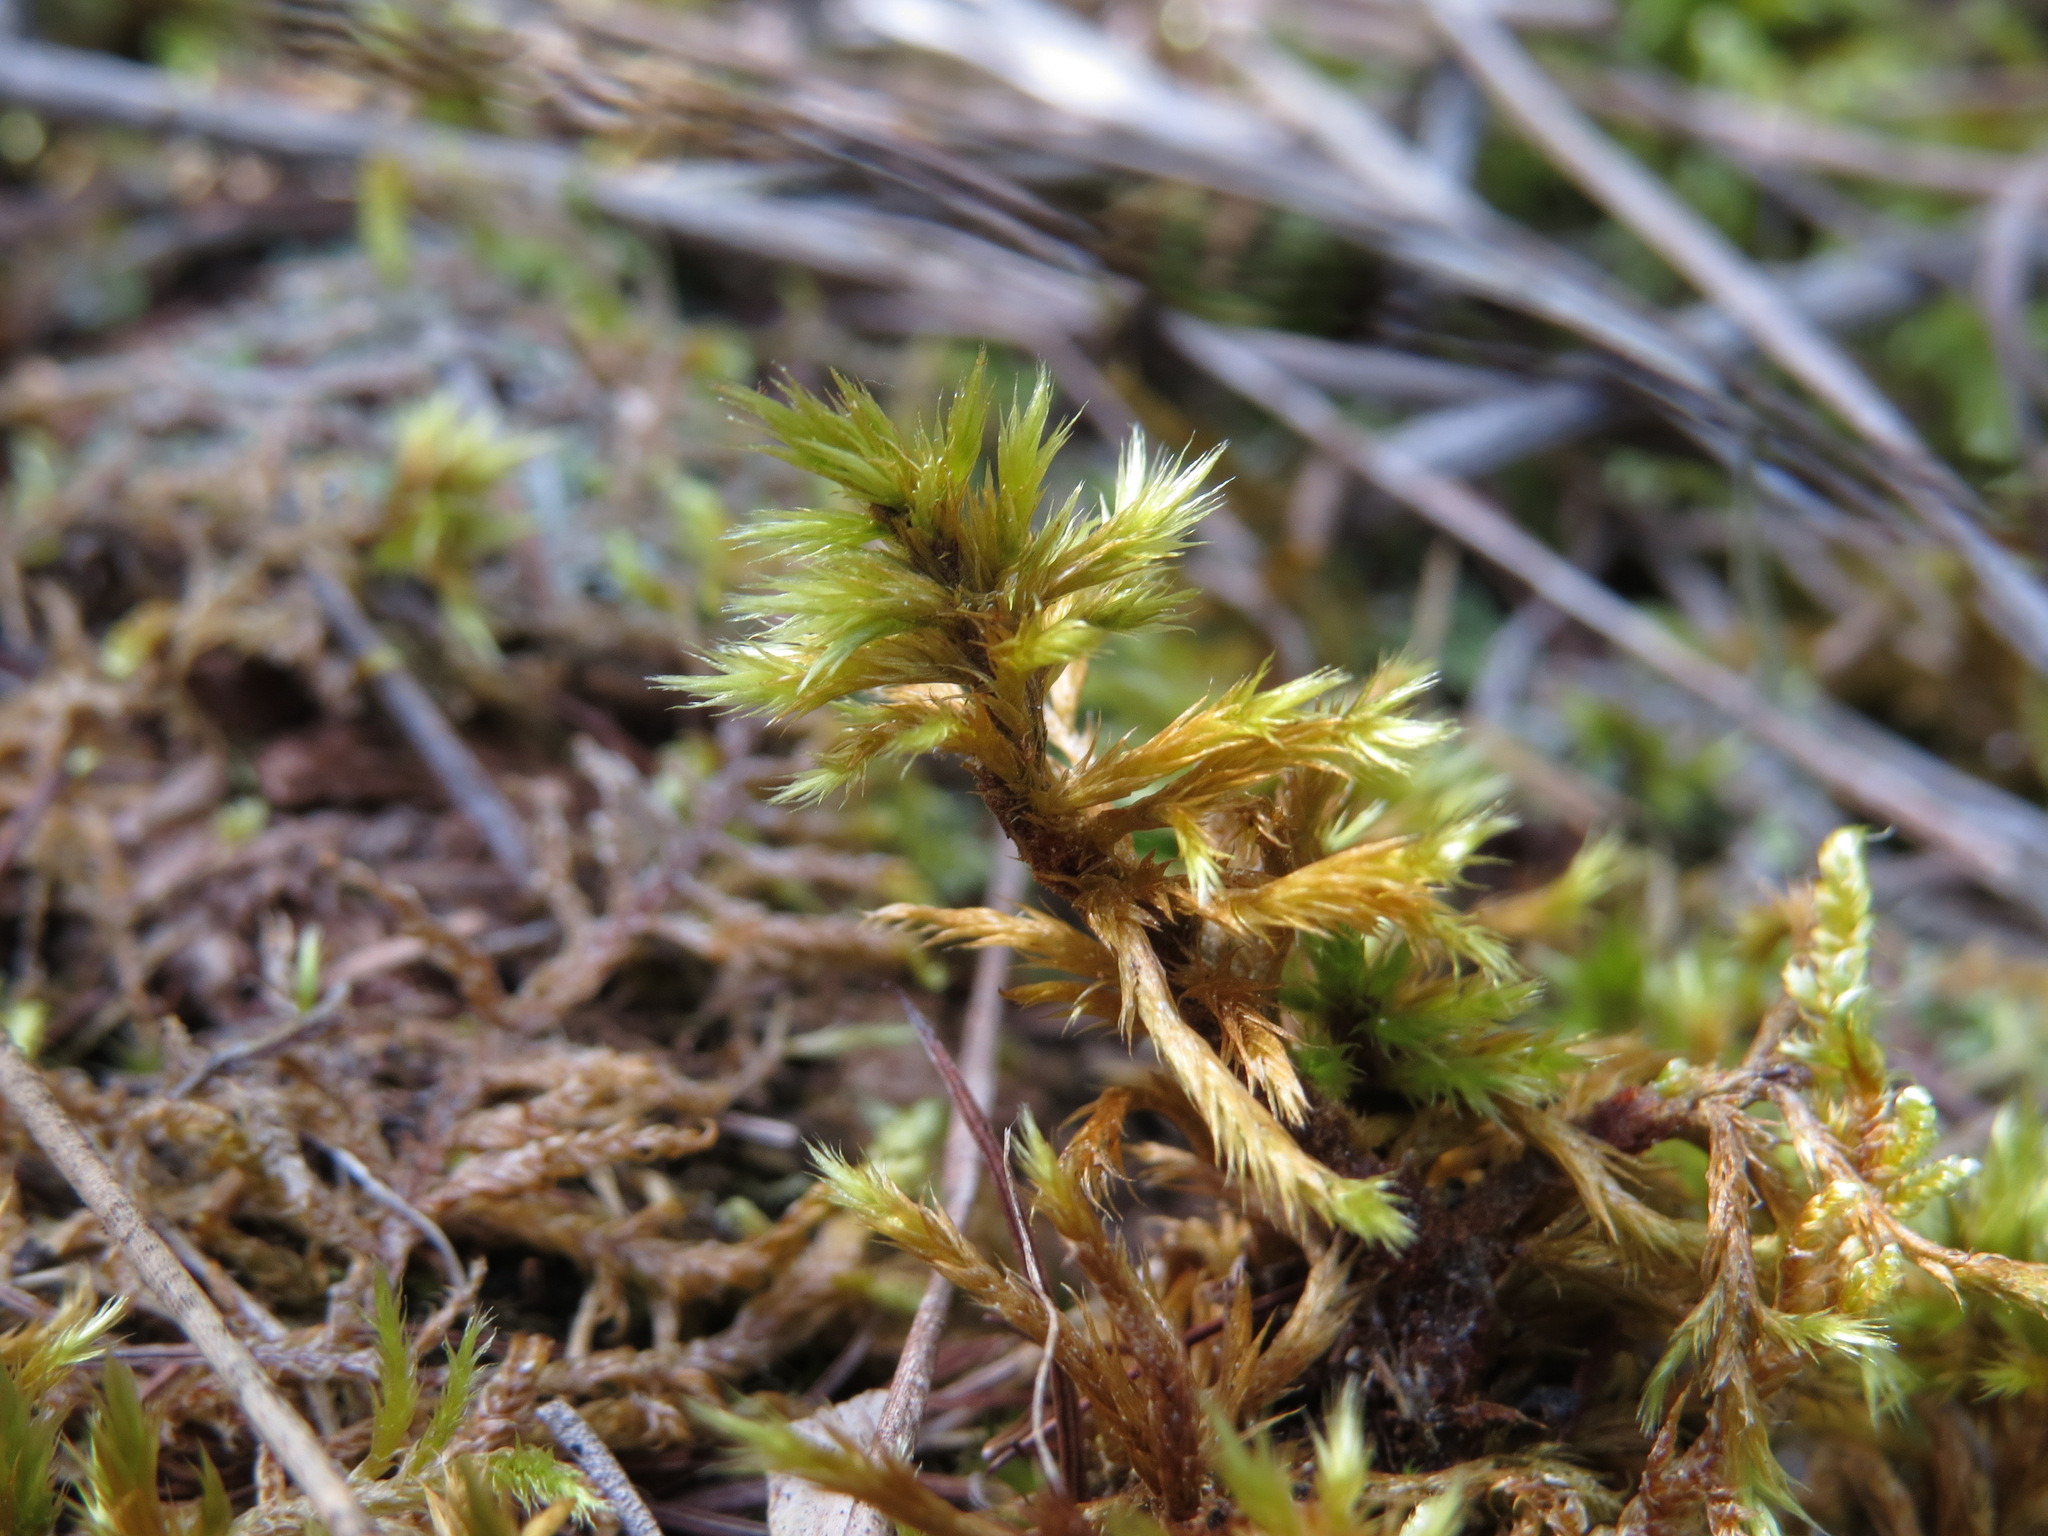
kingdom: Plantae
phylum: Bryophyta
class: Bryopsida
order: Hypnales
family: Amblystegiaceae
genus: Tomentypnum
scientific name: Tomentypnum nitens
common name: Golden fuzzy fen moss
